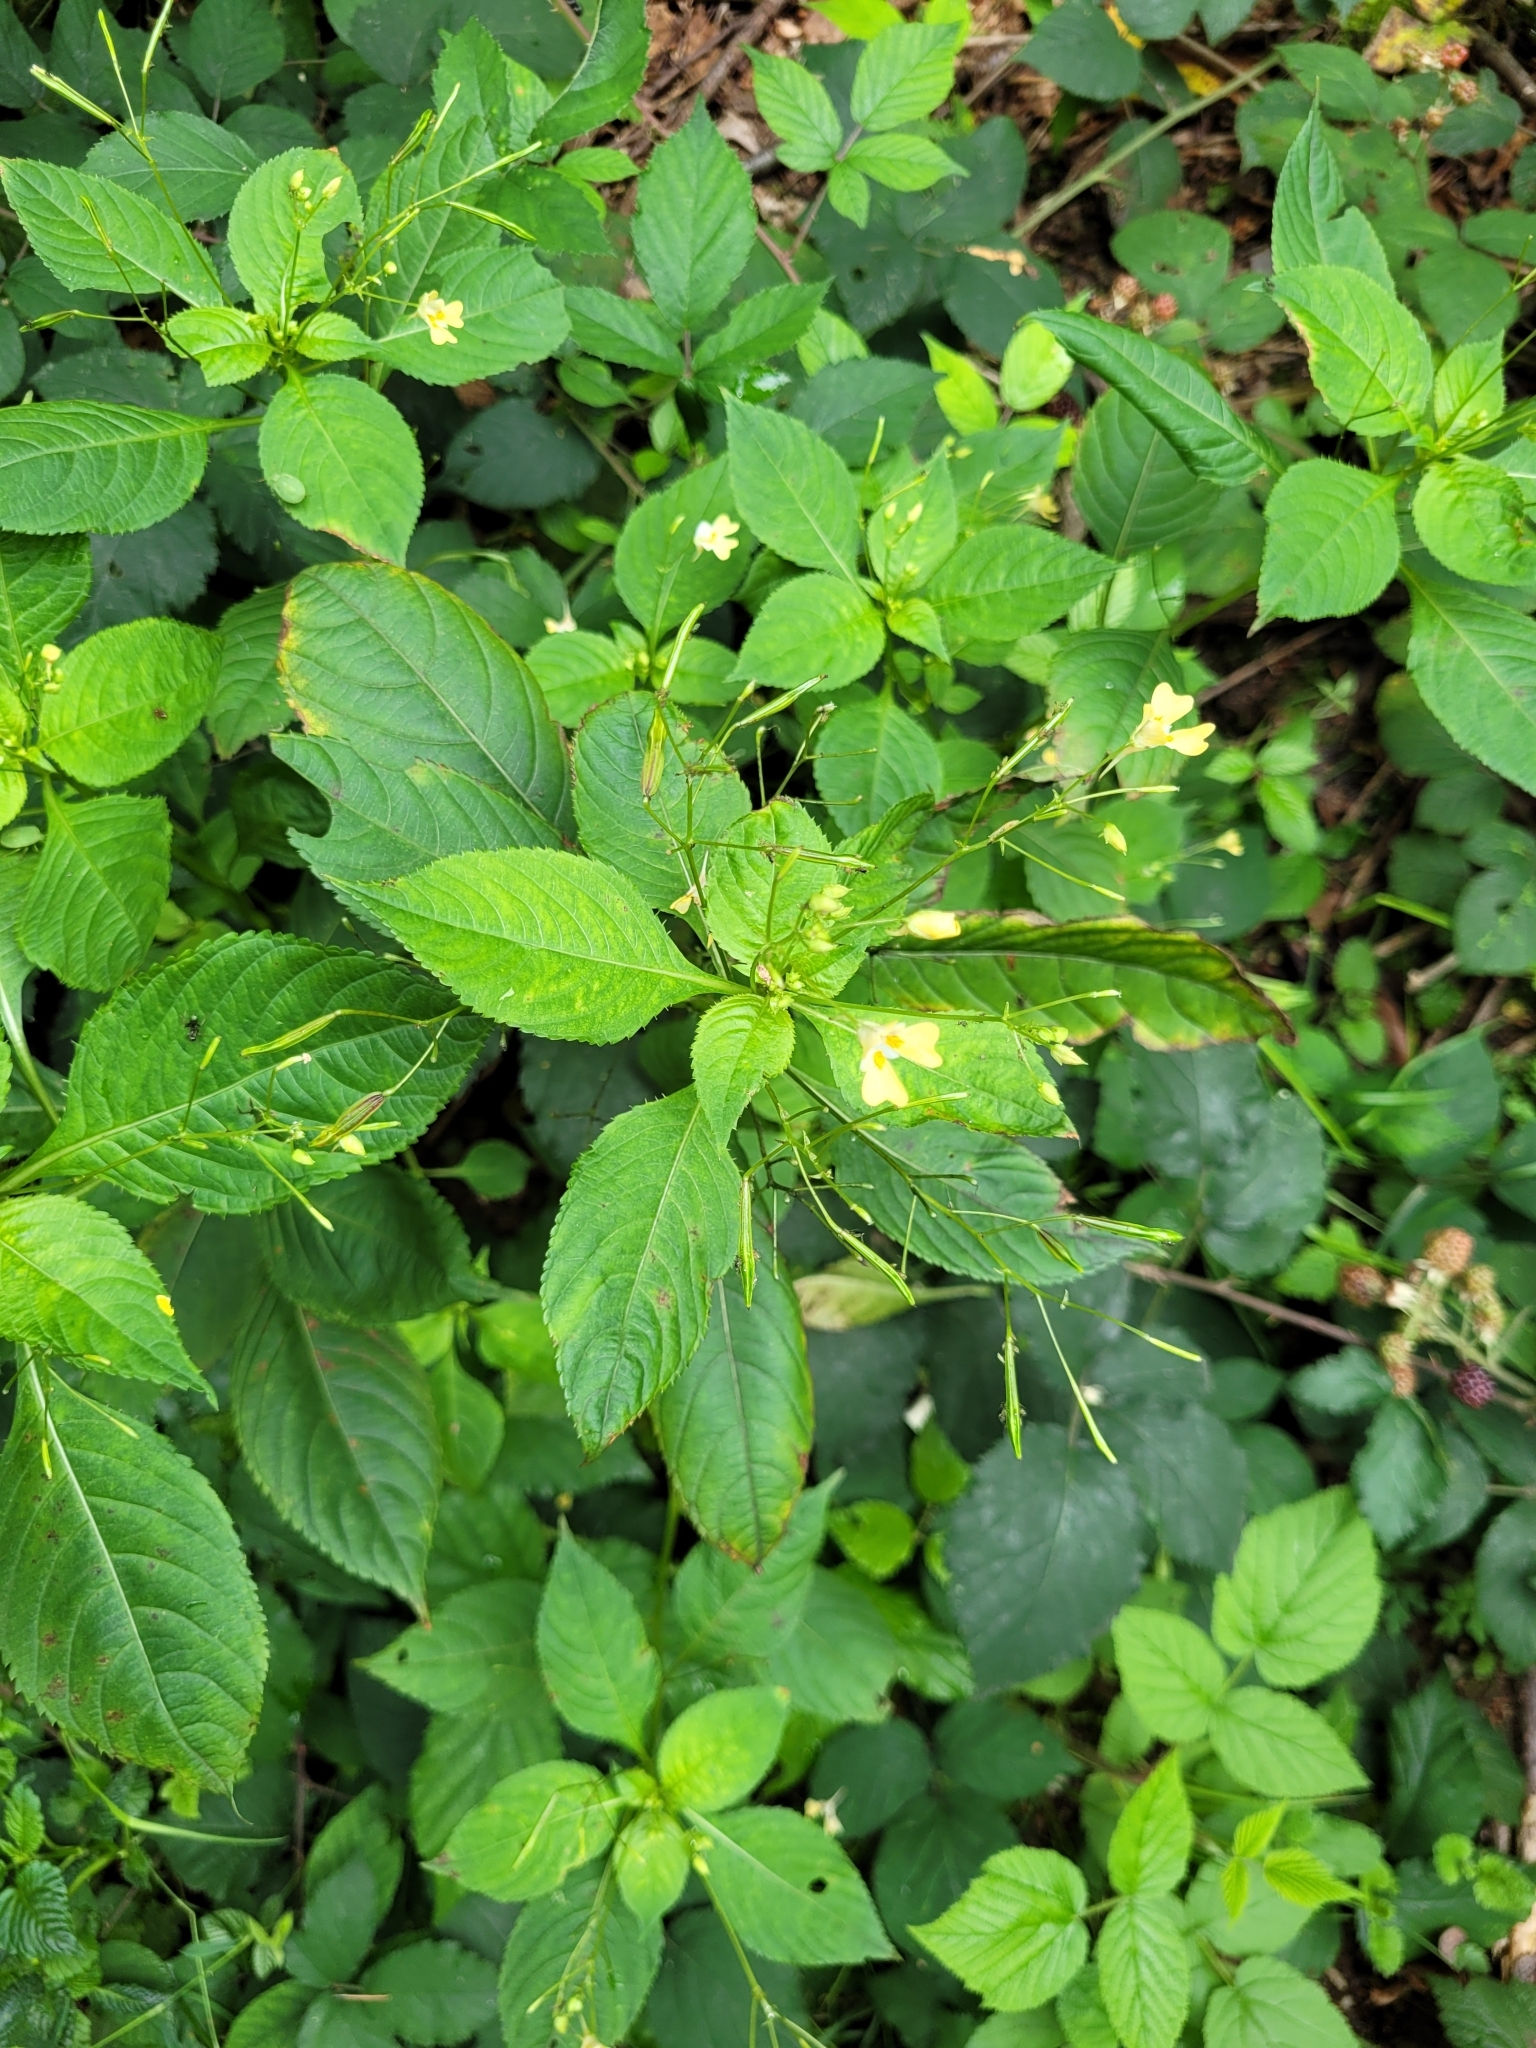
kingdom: Plantae
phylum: Tracheophyta
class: Magnoliopsida
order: Ericales
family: Balsaminaceae
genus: Impatiens
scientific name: Impatiens parviflora
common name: Small balsam
